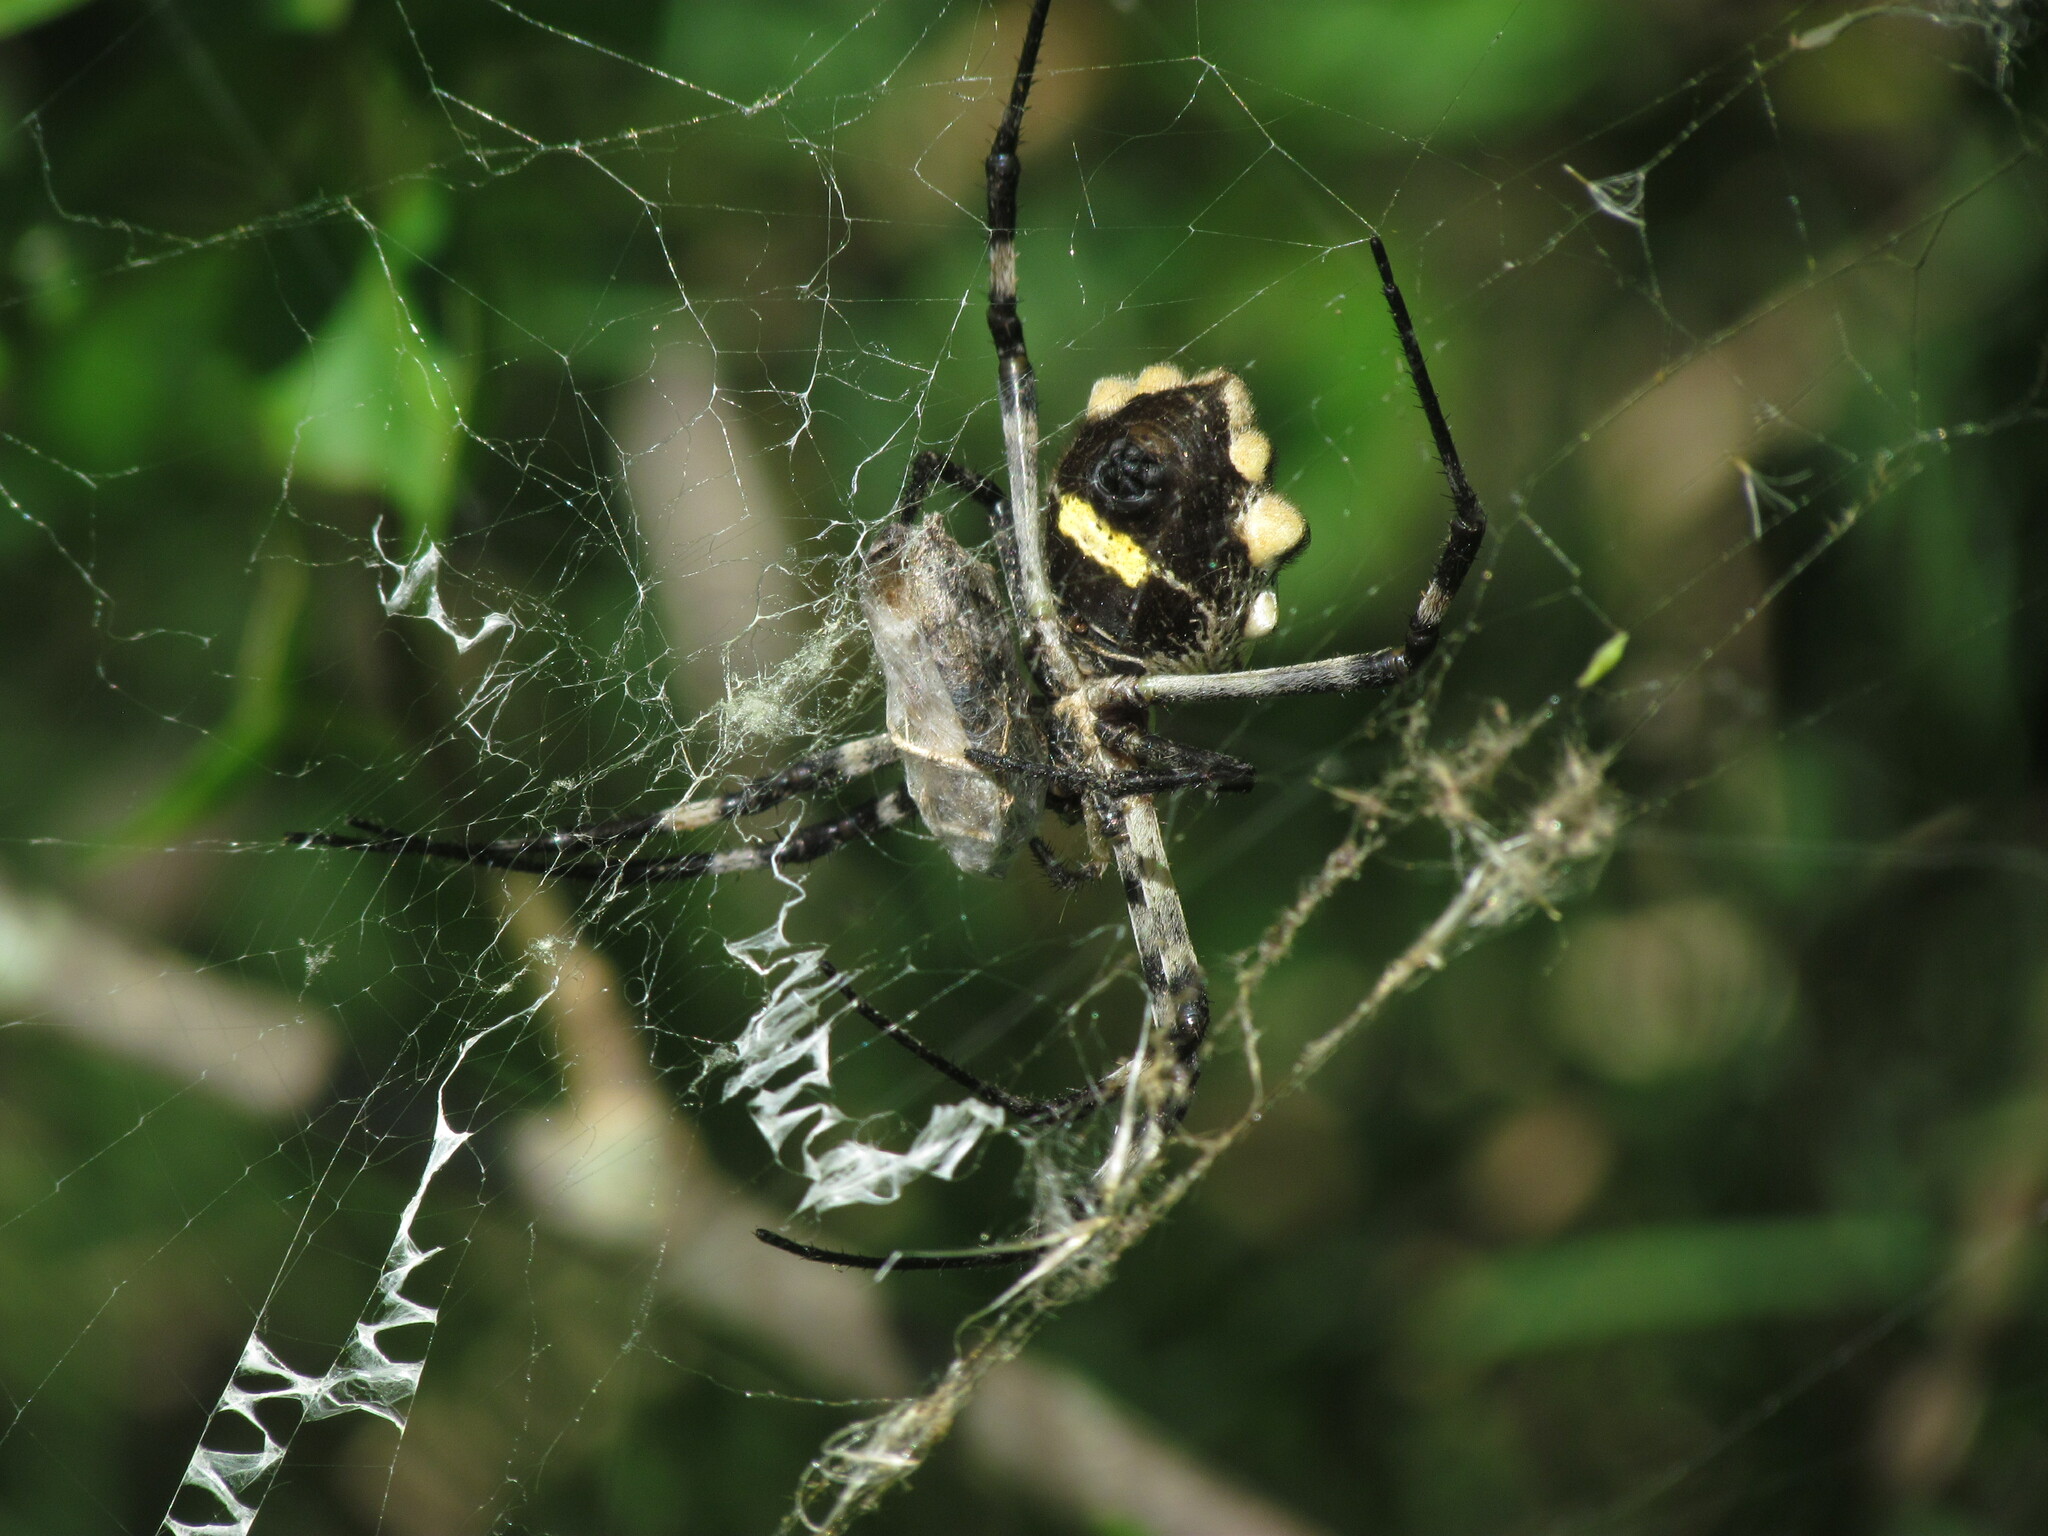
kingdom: Animalia
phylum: Arthropoda
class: Arachnida
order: Araneae
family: Araneidae
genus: Argiope
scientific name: Argiope argentata
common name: Orb weavers
